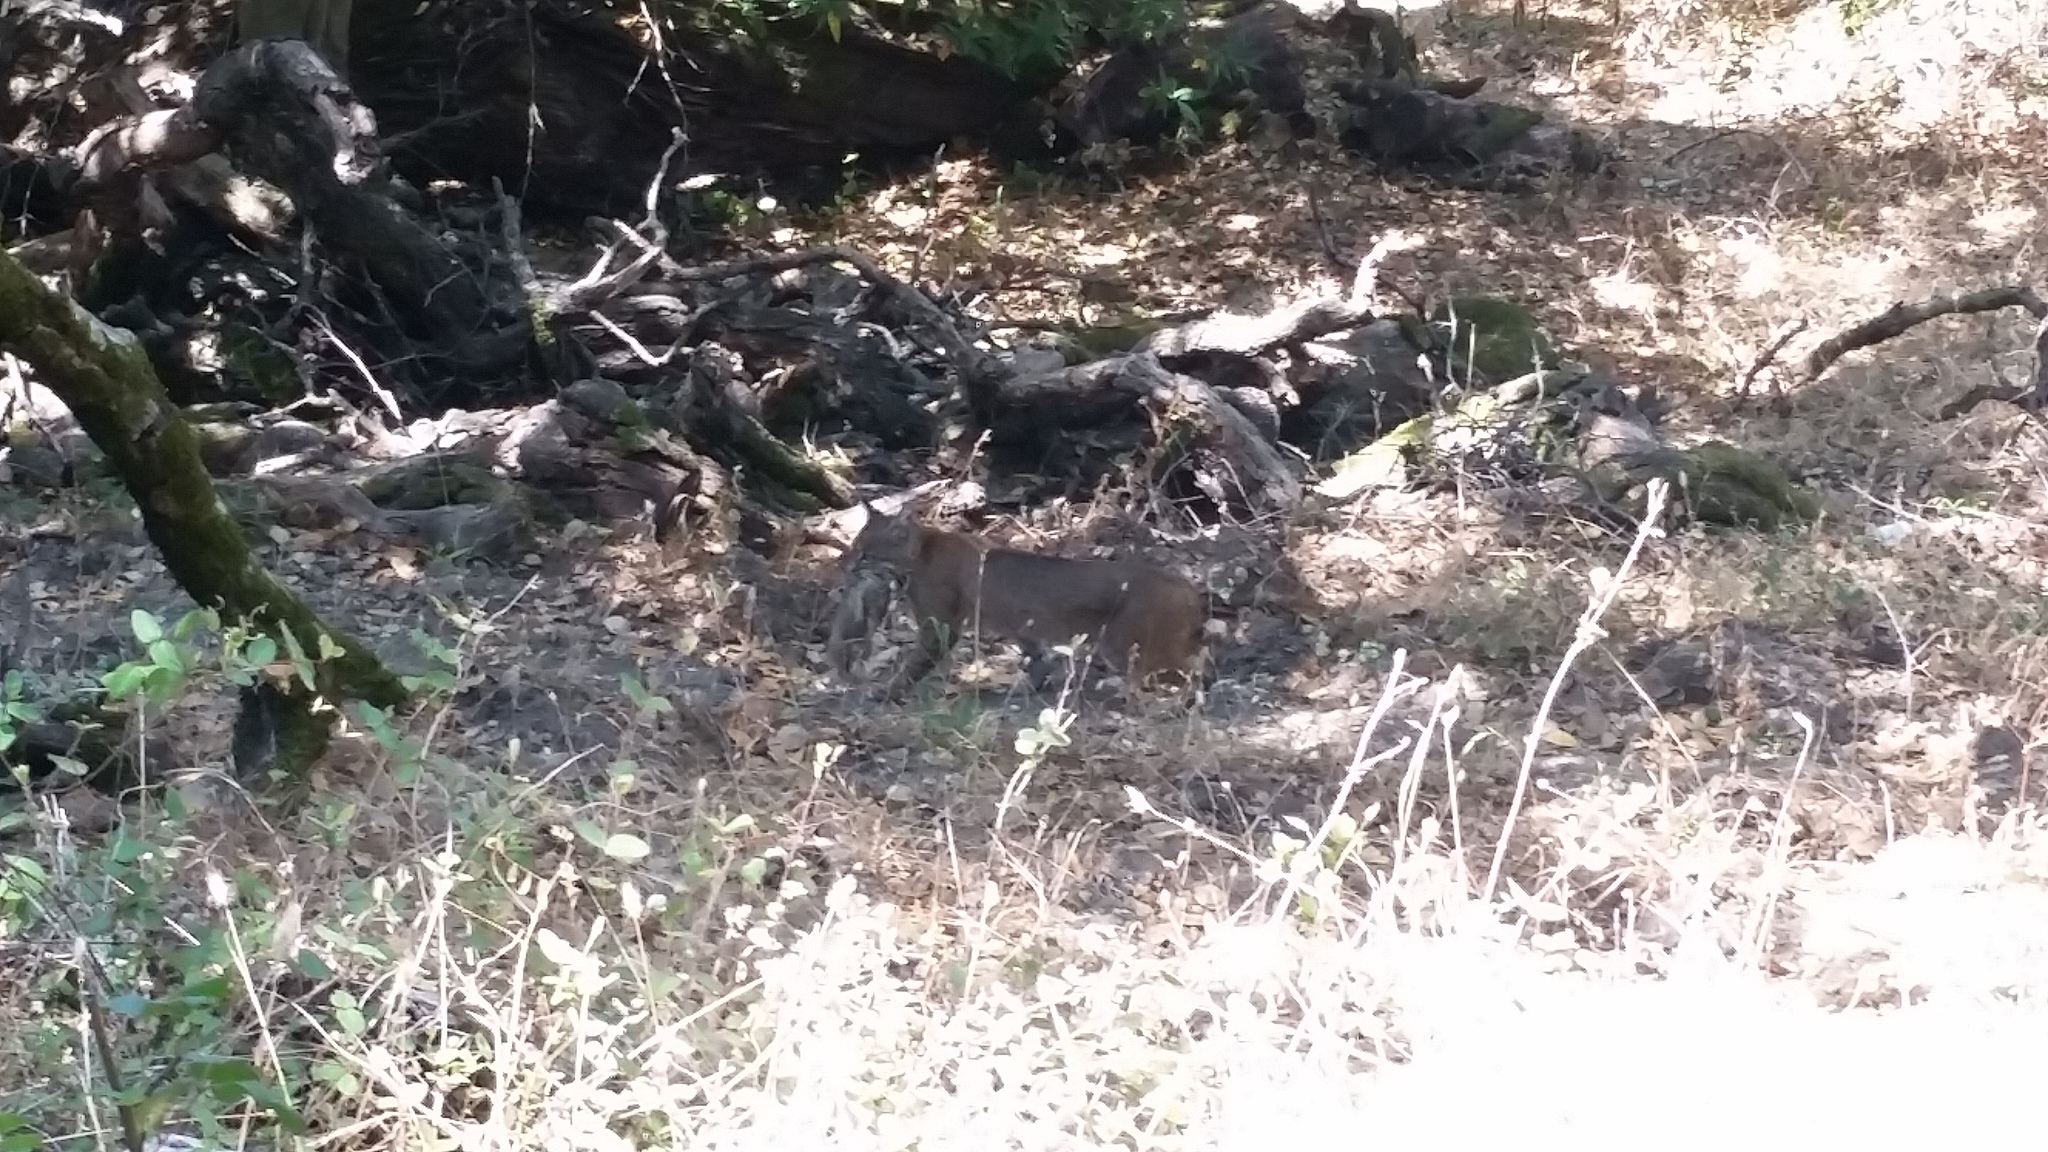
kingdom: Animalia
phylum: Chordata
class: Mammalia
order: Carnivora
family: Felidae
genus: Lynx
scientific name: Lynx rufus
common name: Bobcat
